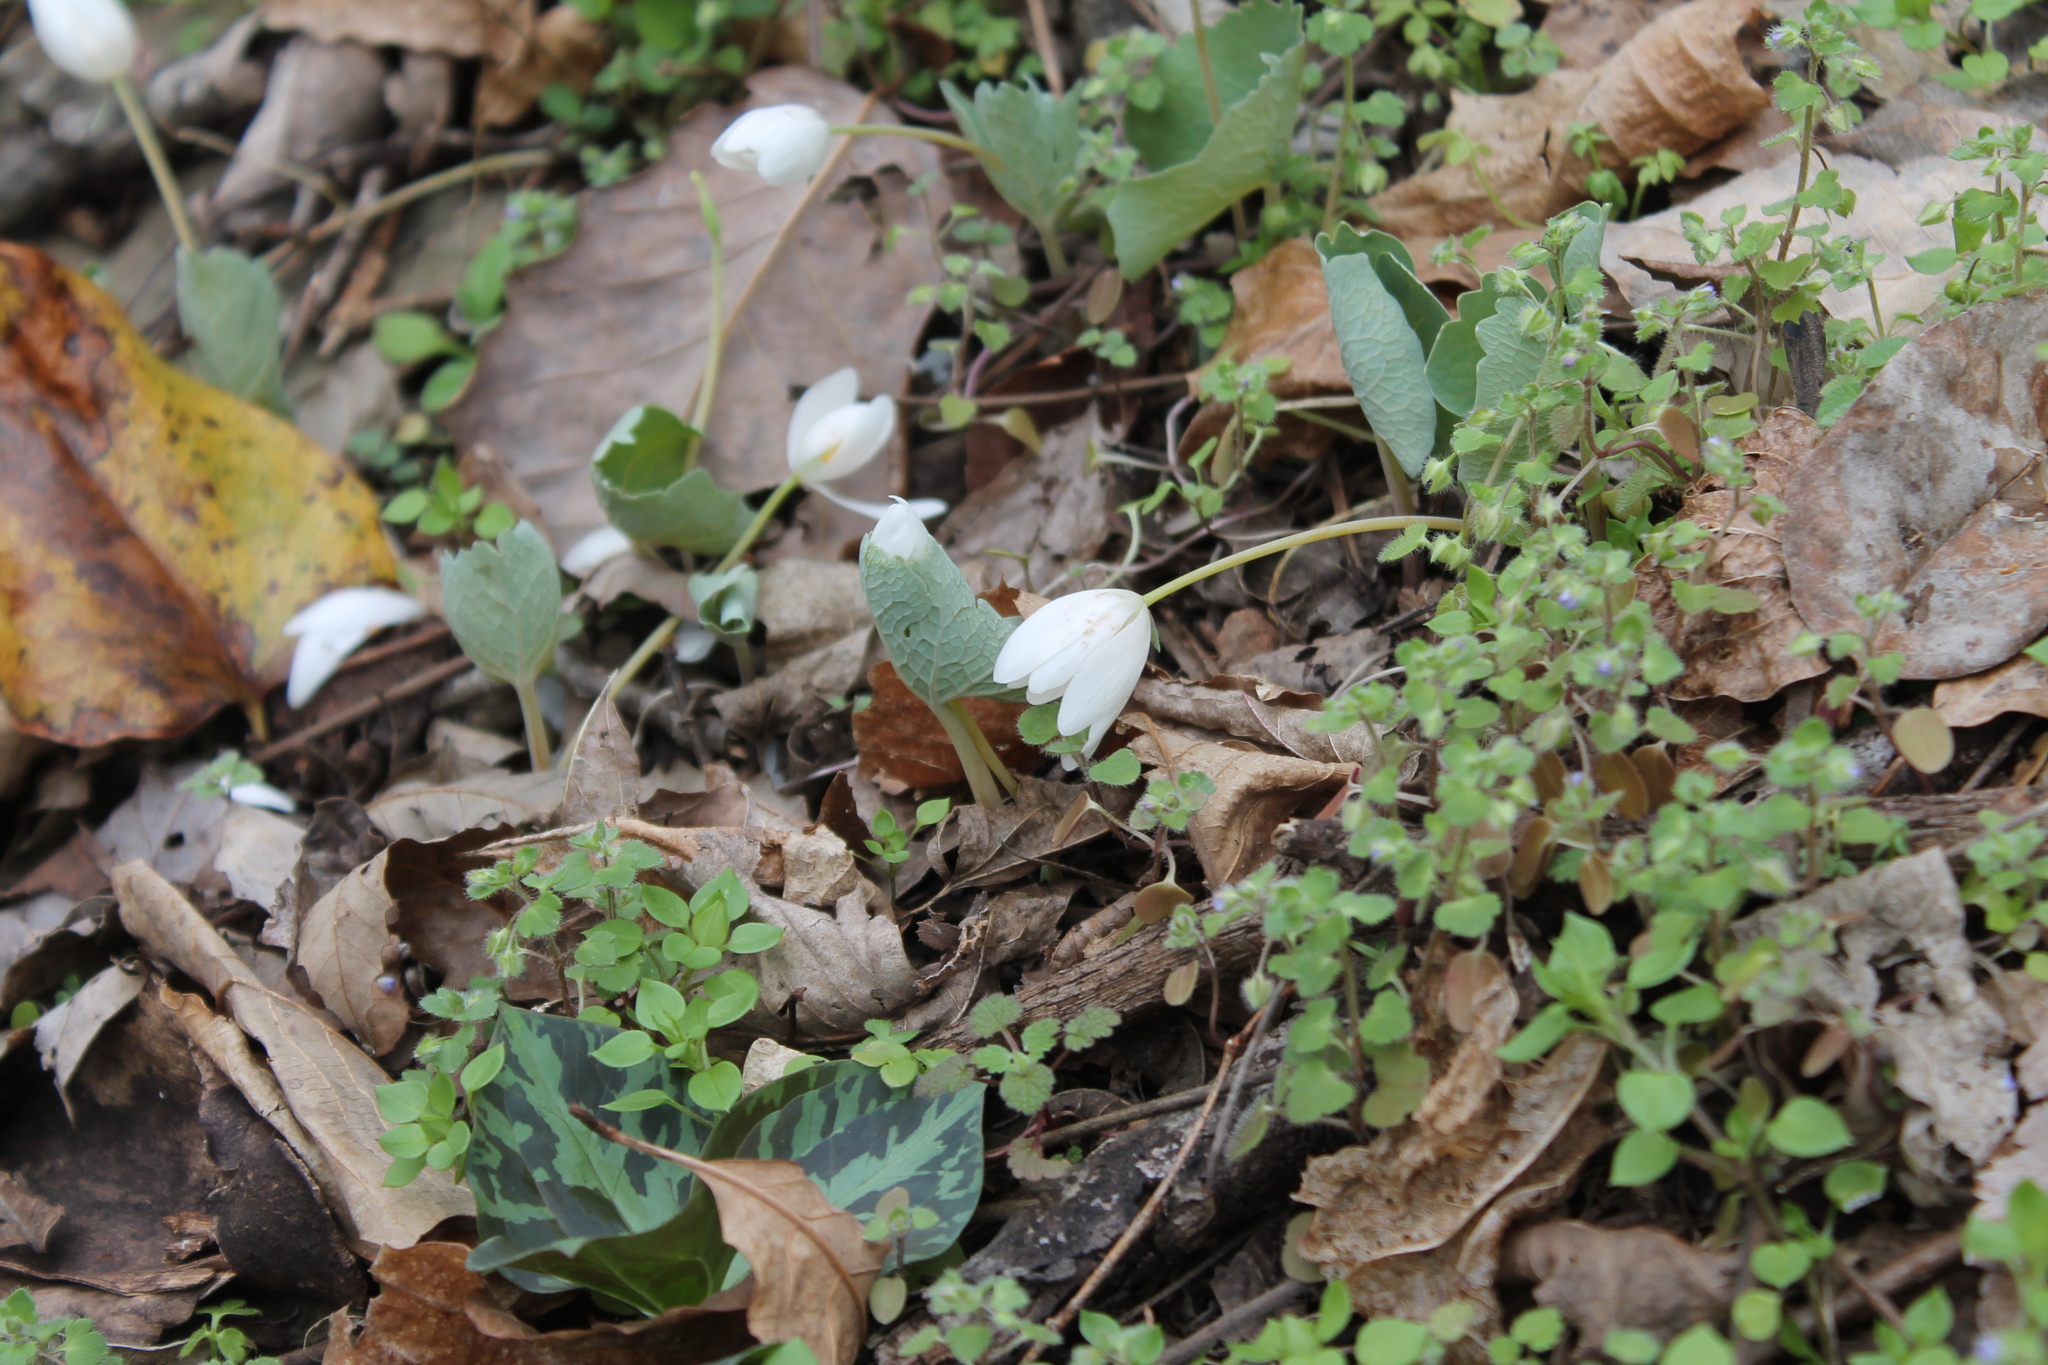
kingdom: Plantae
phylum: Tracheophyta
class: Magnoliopsida
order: Ranunculales
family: Papaveraceae
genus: Sanguinaria
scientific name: Sanguinaria canadensis
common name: Bloodroot
